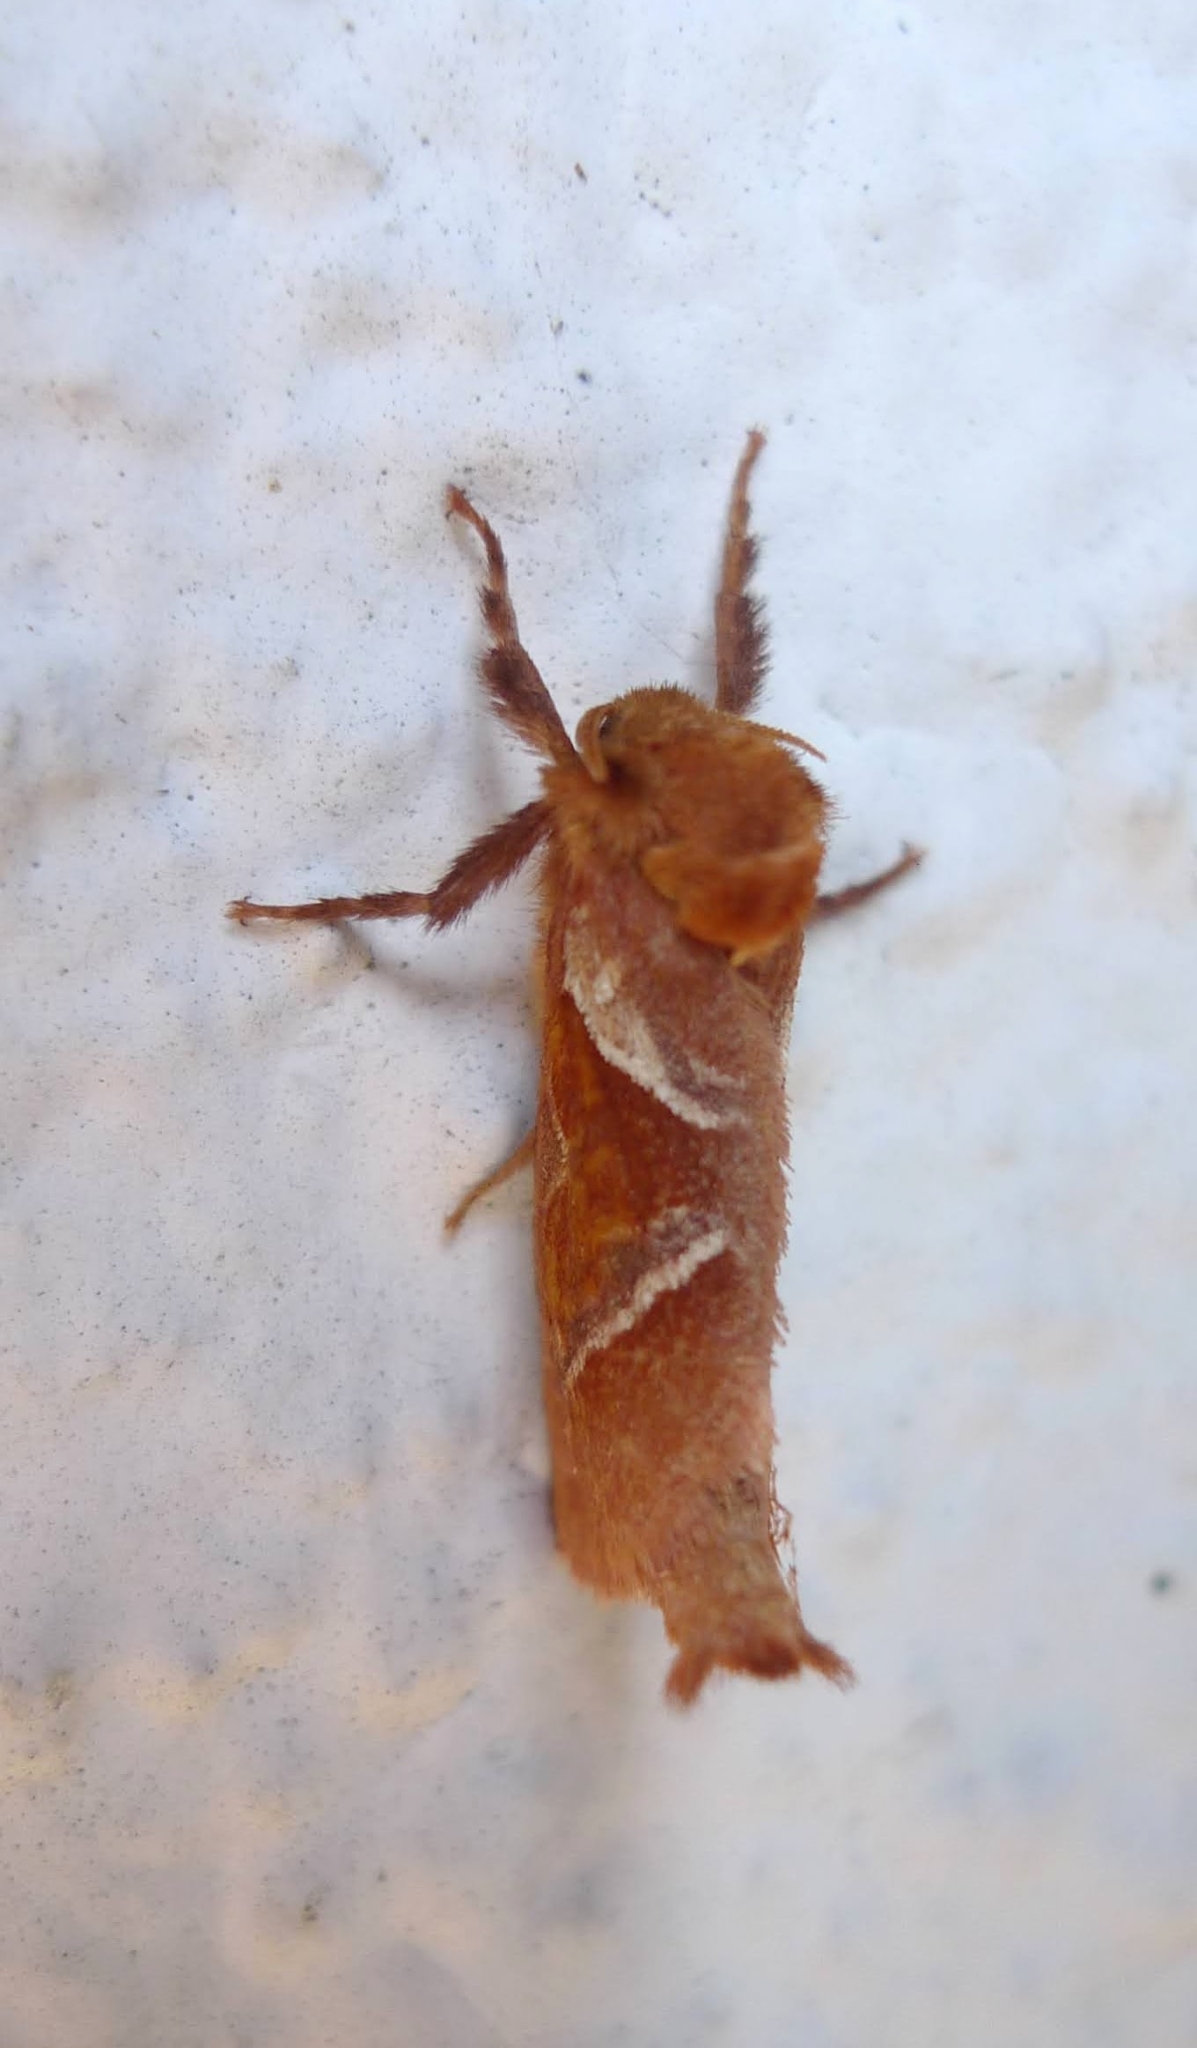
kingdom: Animalia
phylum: Arthropoda
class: Insecta
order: Lepidoptera
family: Hepialidae
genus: Triodia
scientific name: Triodia sylvina
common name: Orange swift
